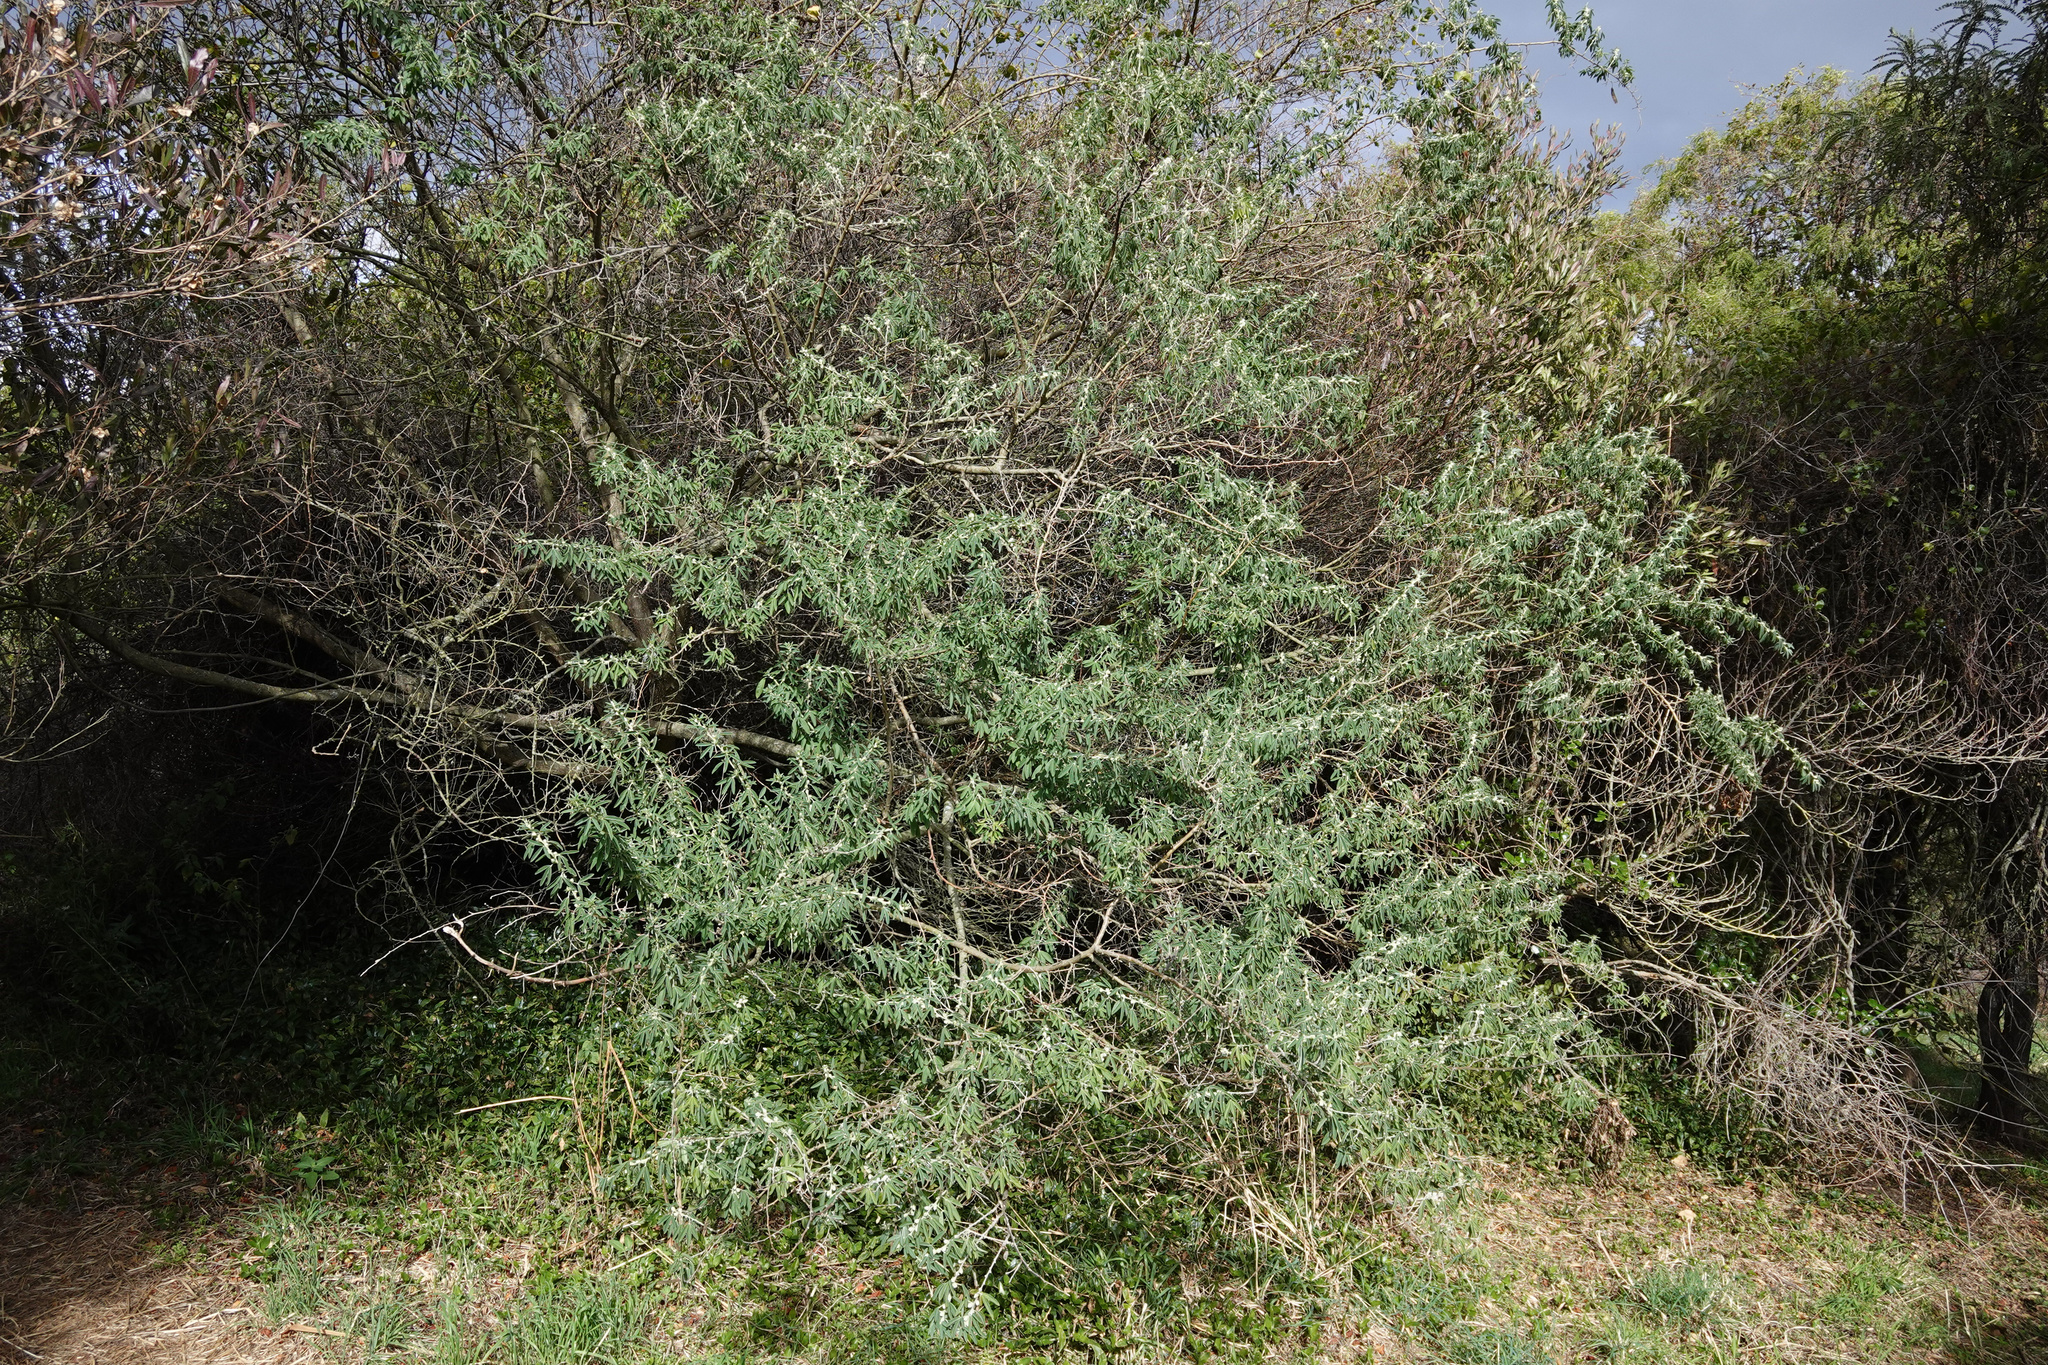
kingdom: Plantae
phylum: Tracheophyta
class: Magnoliopsida
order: Fabales
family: Fabaceae
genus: Chamaecytisus
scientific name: Chamaecytisus prolifer
